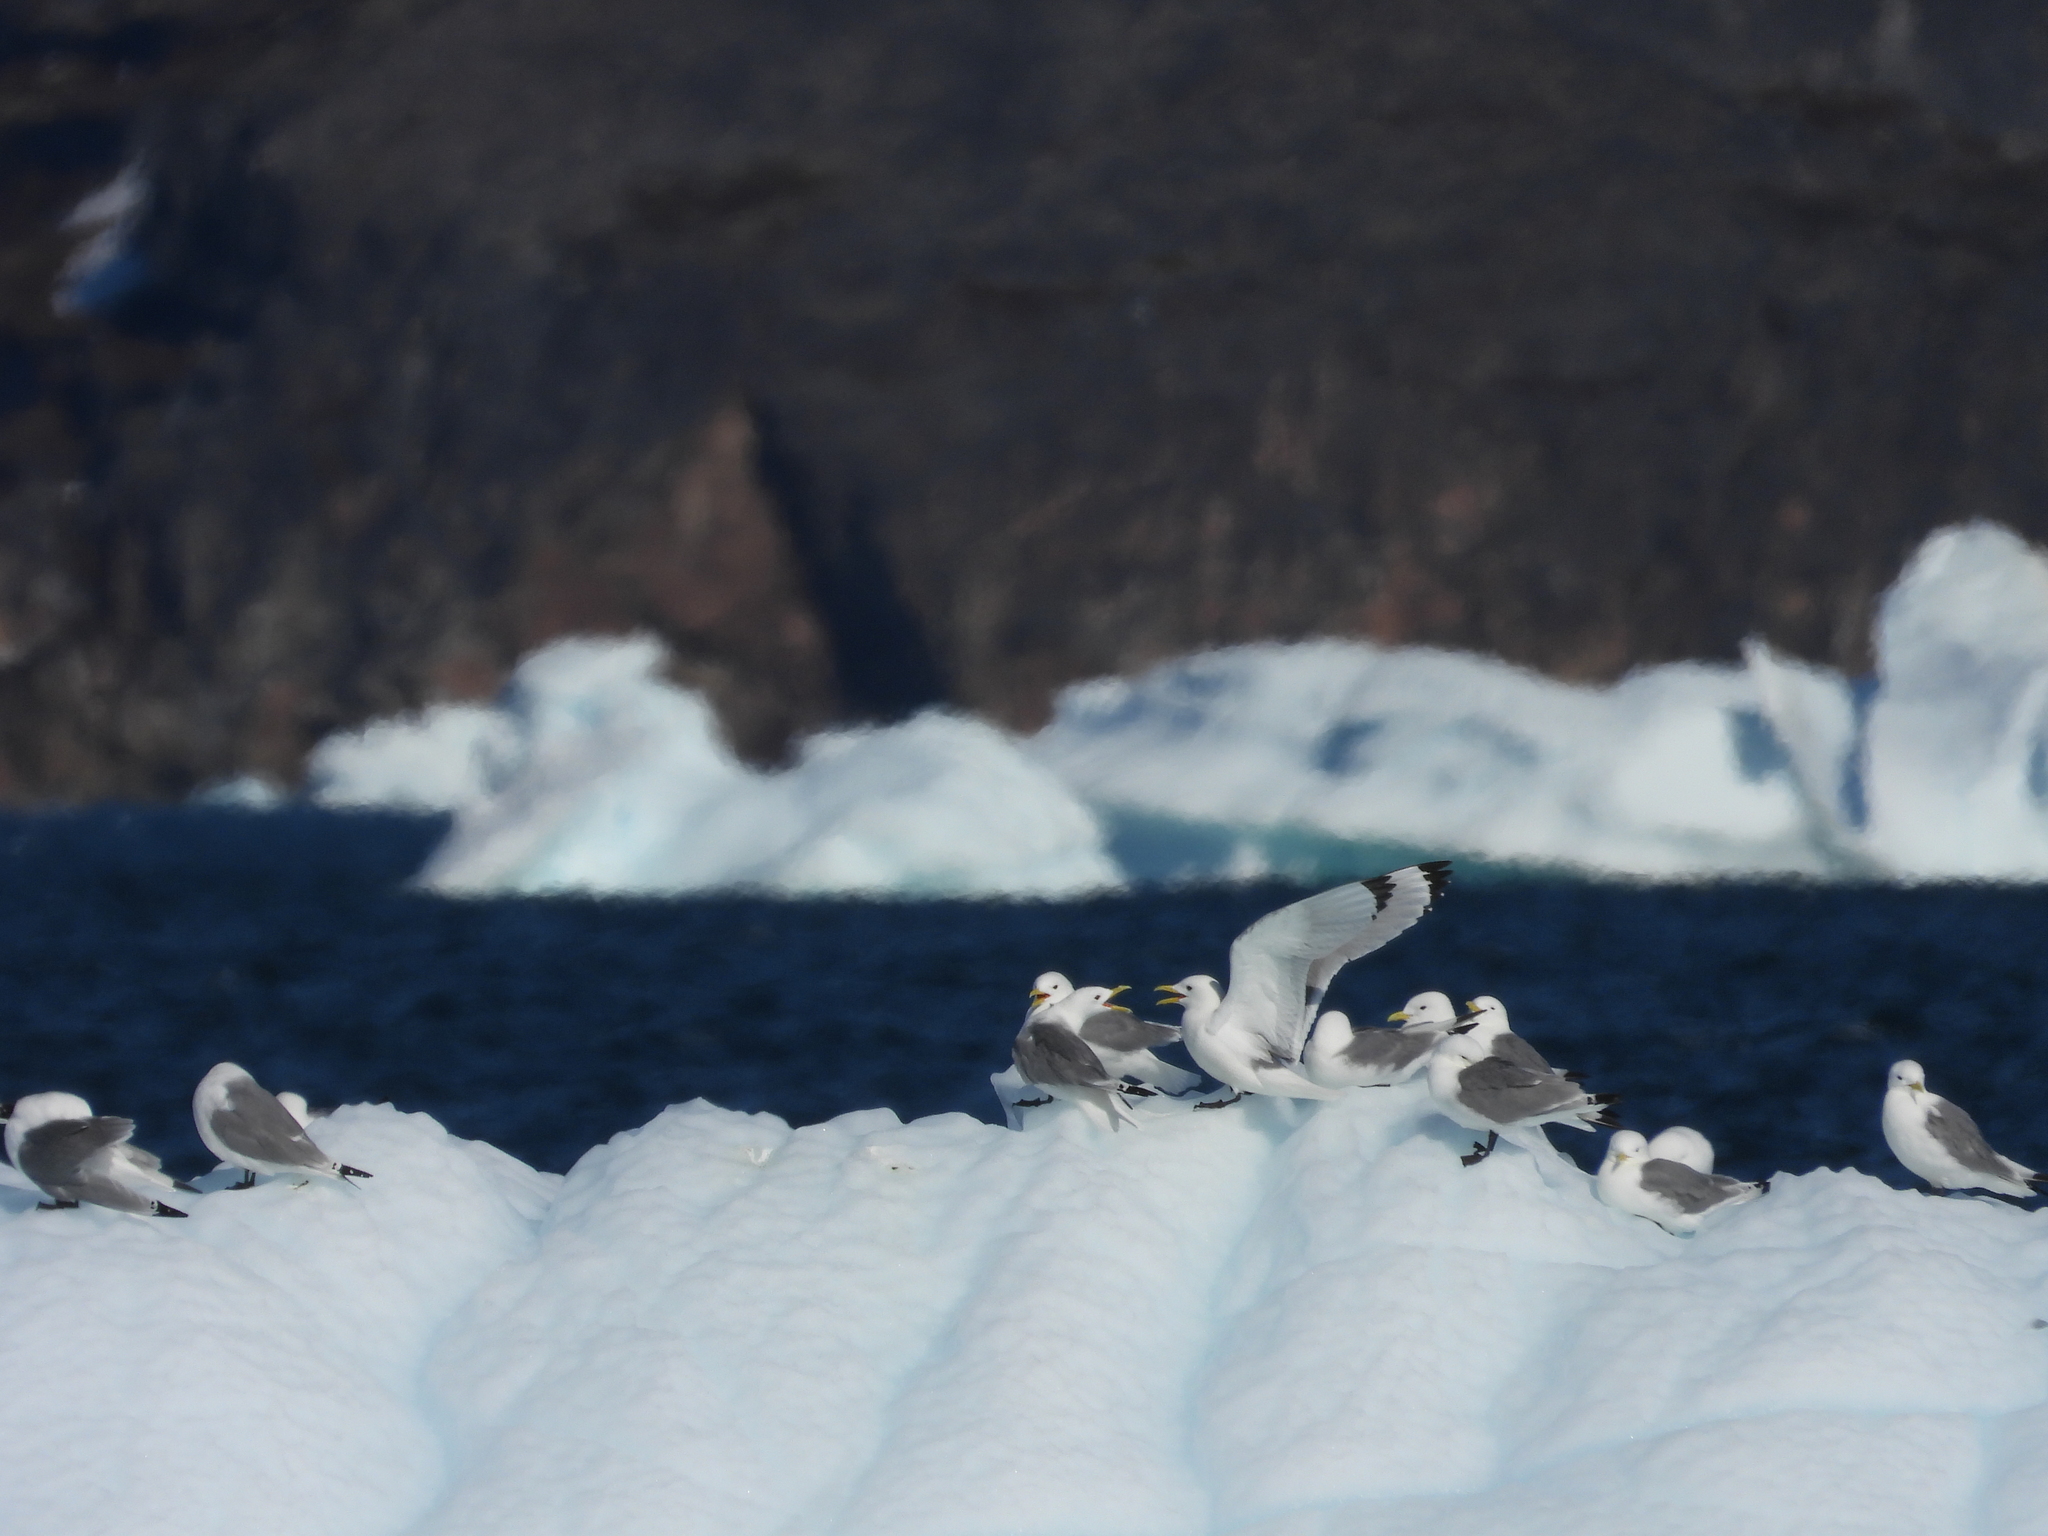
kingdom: Animalia
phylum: Chordata
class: Aves
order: Charadriiformes
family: Laridae
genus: Rissa
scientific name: Rissa tridactyla
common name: Black-legged kittiwake
